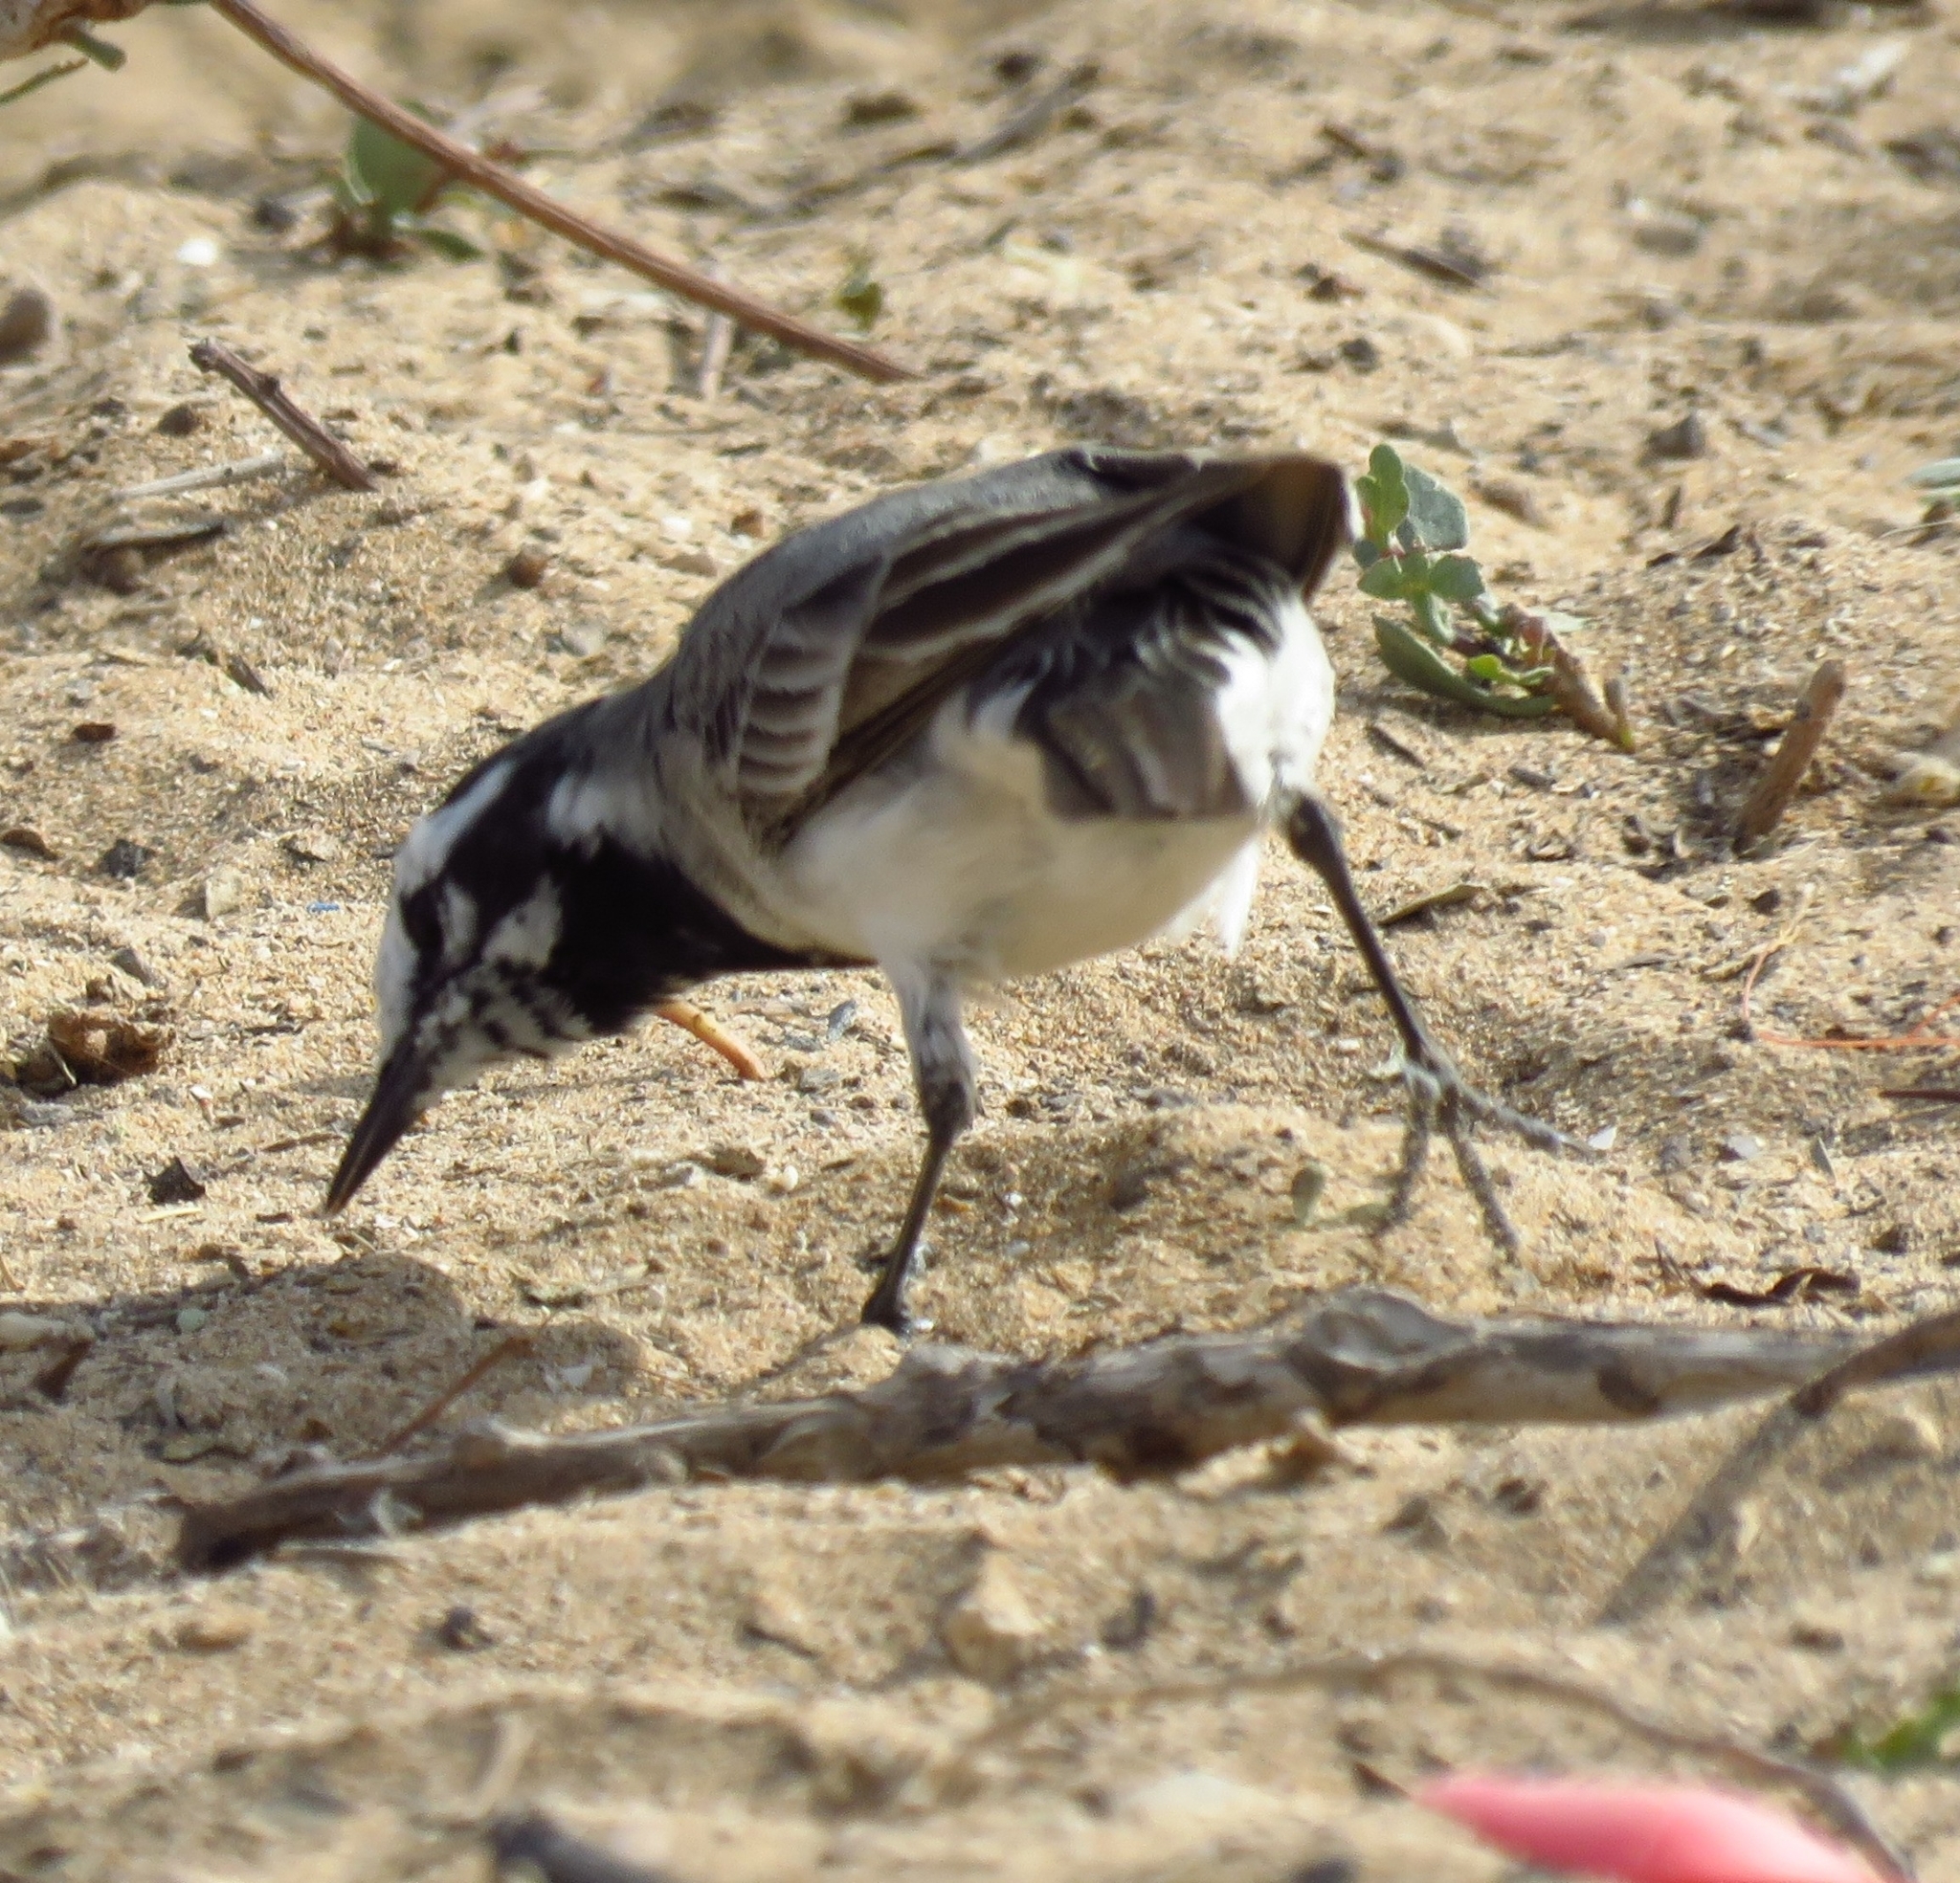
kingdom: Animalia
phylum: Chordata
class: Aves
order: Passeriformes
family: Motacillidae
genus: Motacilla
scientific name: Motacilla alba
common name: White wagtail
